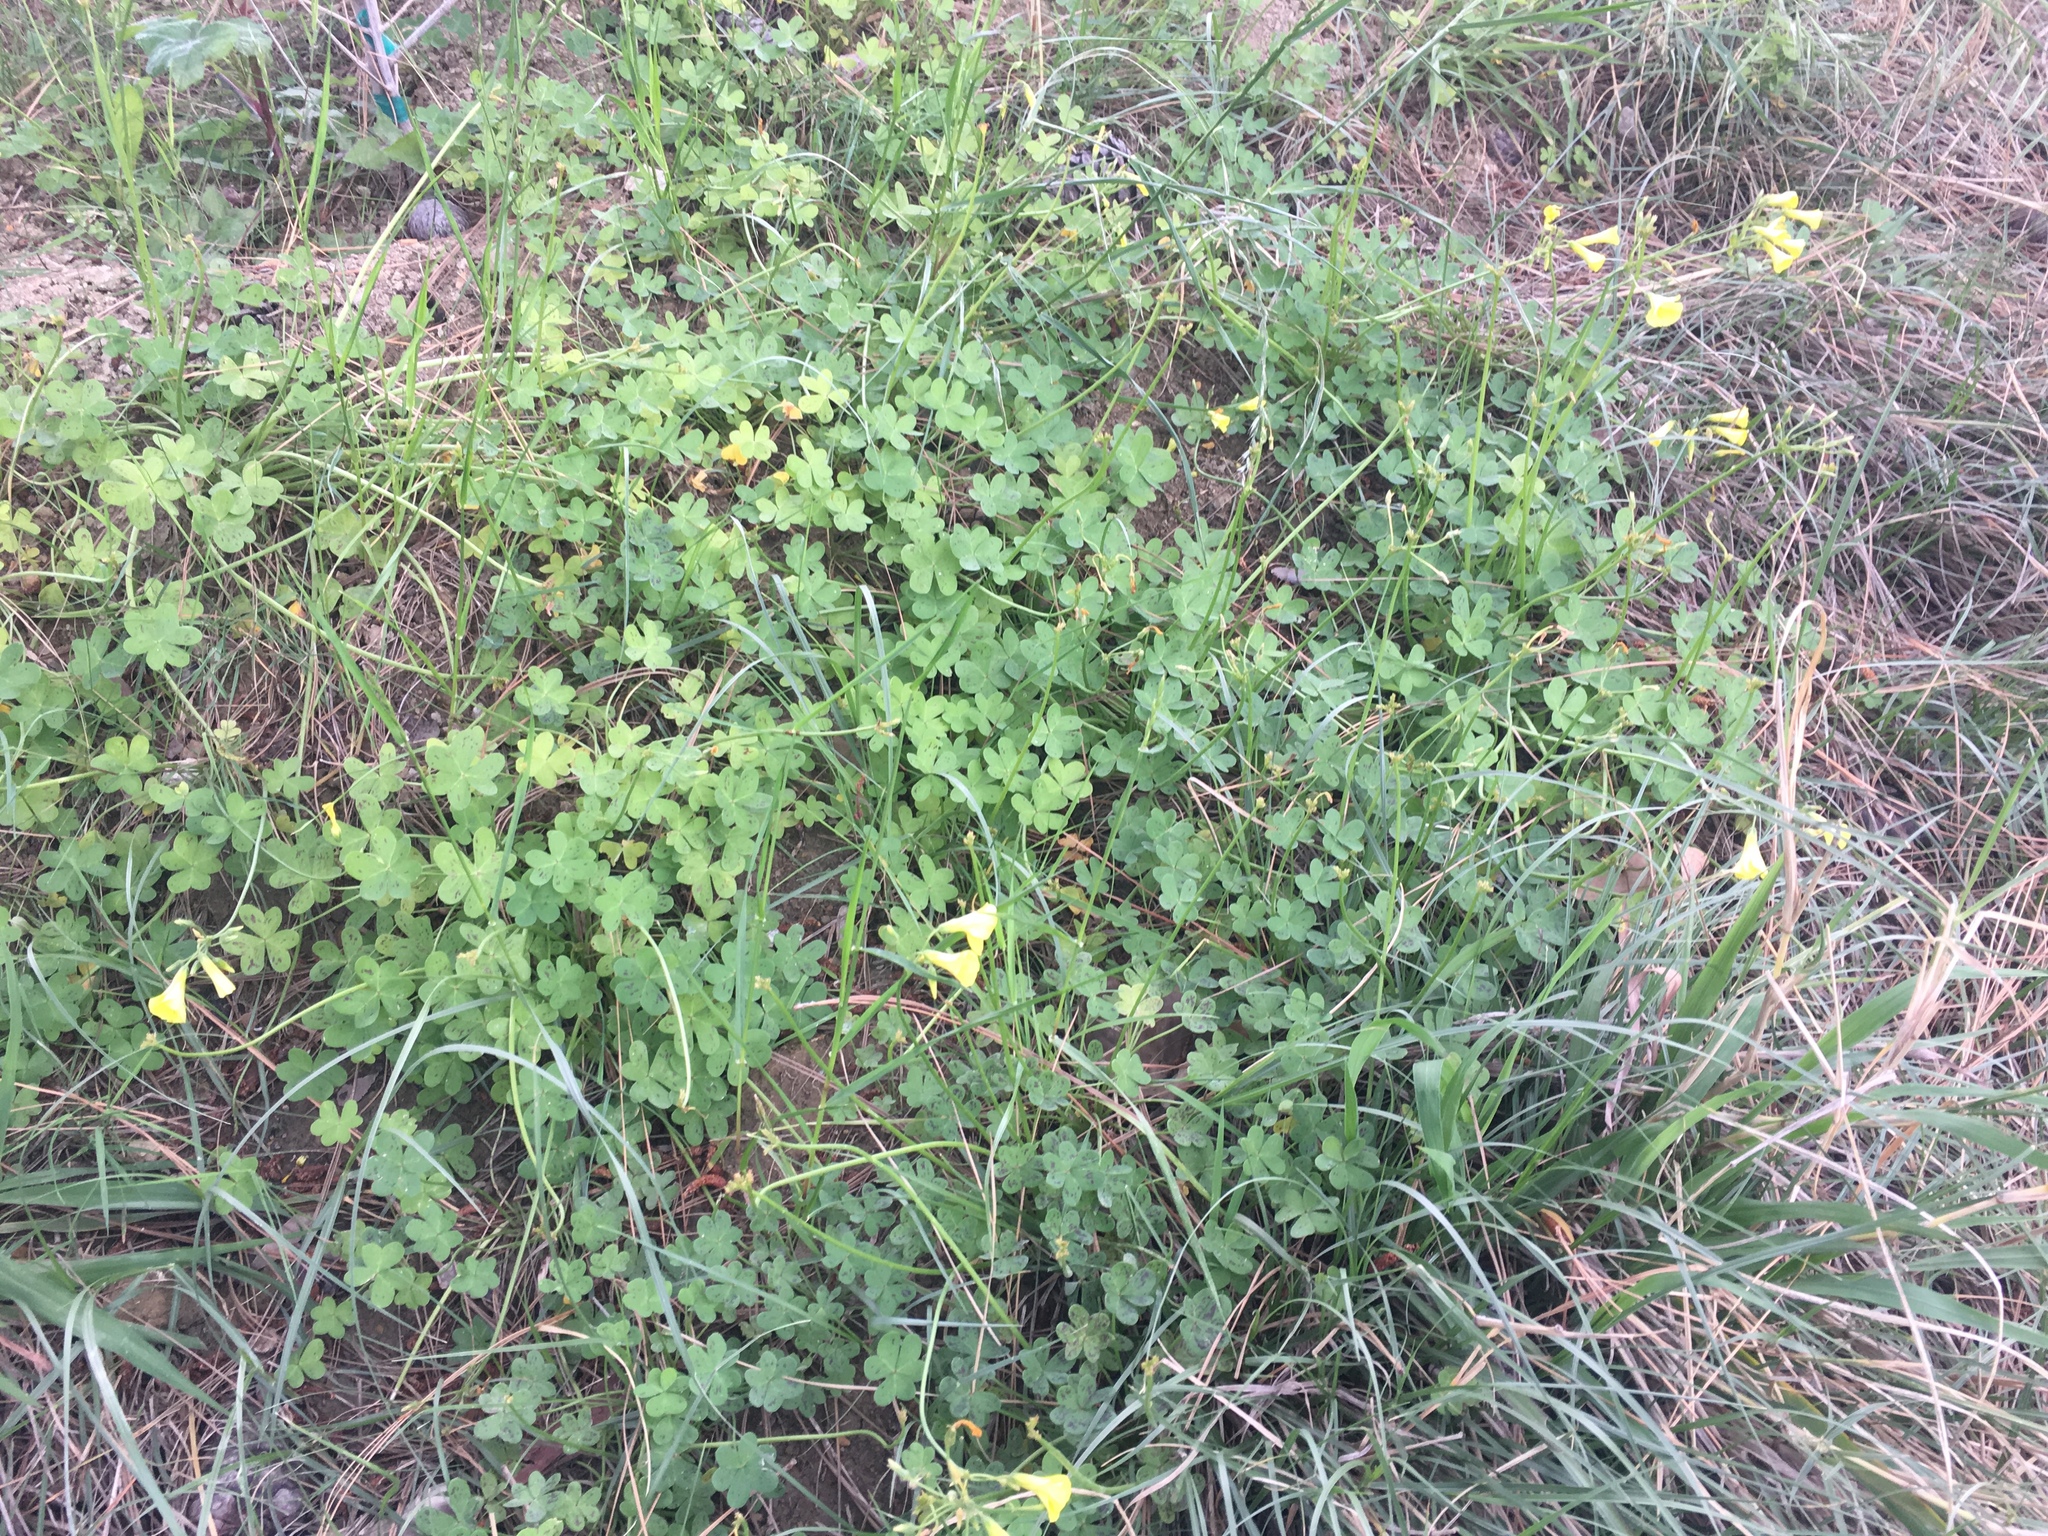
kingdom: Plantae
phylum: Tracheophyta
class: Magnoliopsida
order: Oxalidales
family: Oxalidaceae
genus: Oxalis
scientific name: Oxalis pes-caprae
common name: Bermuda-buttercup
